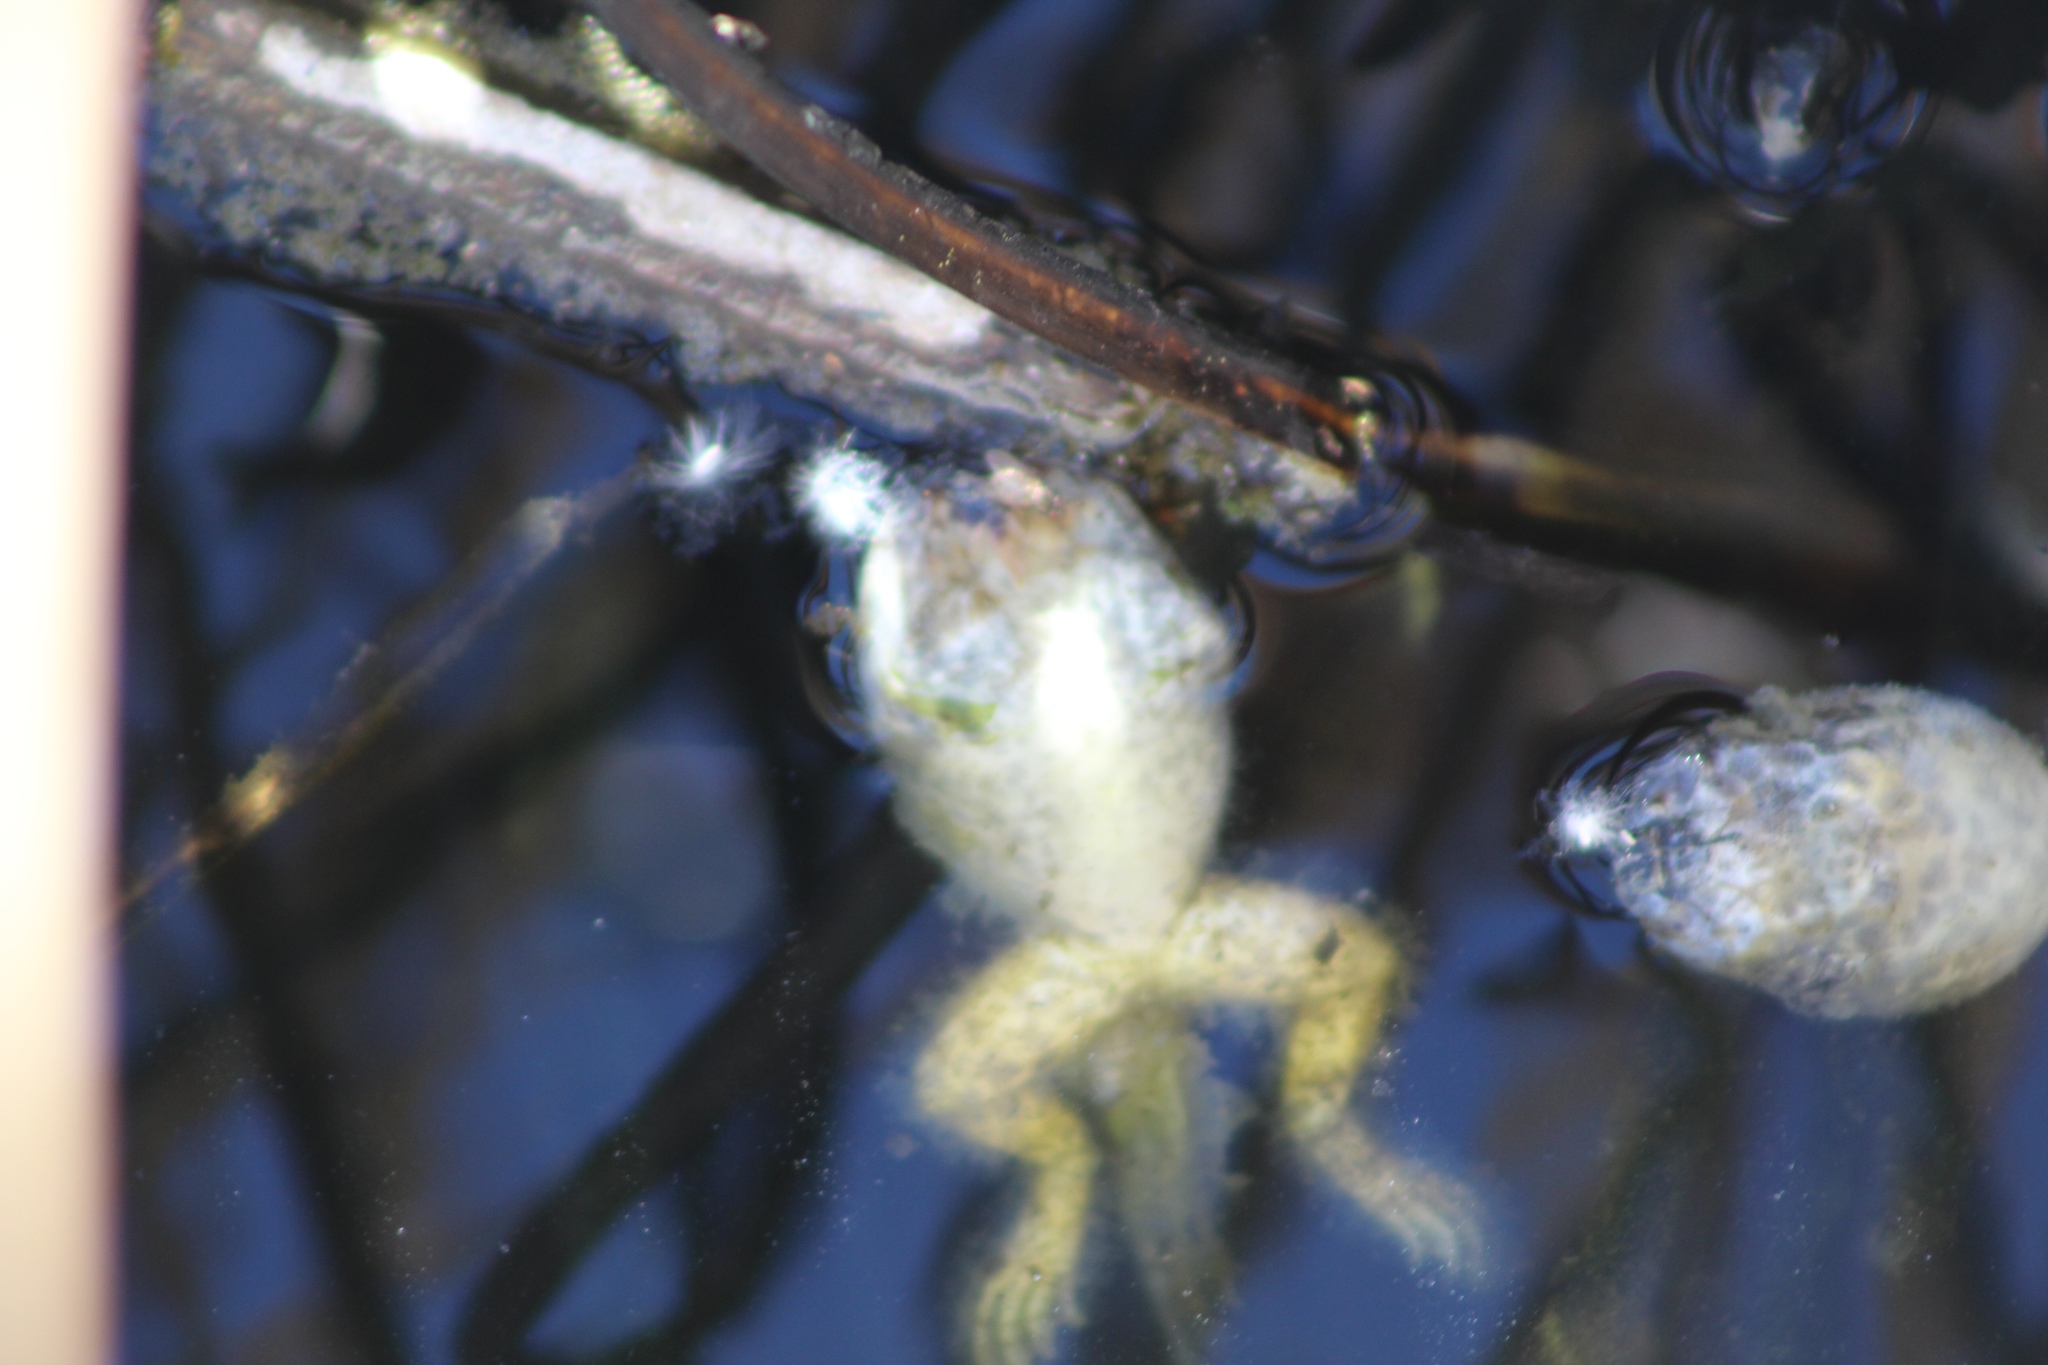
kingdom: Animalia
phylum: Chordata
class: Amphibia
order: Anura
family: Ranidae
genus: Lithobates
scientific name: Lithobates
